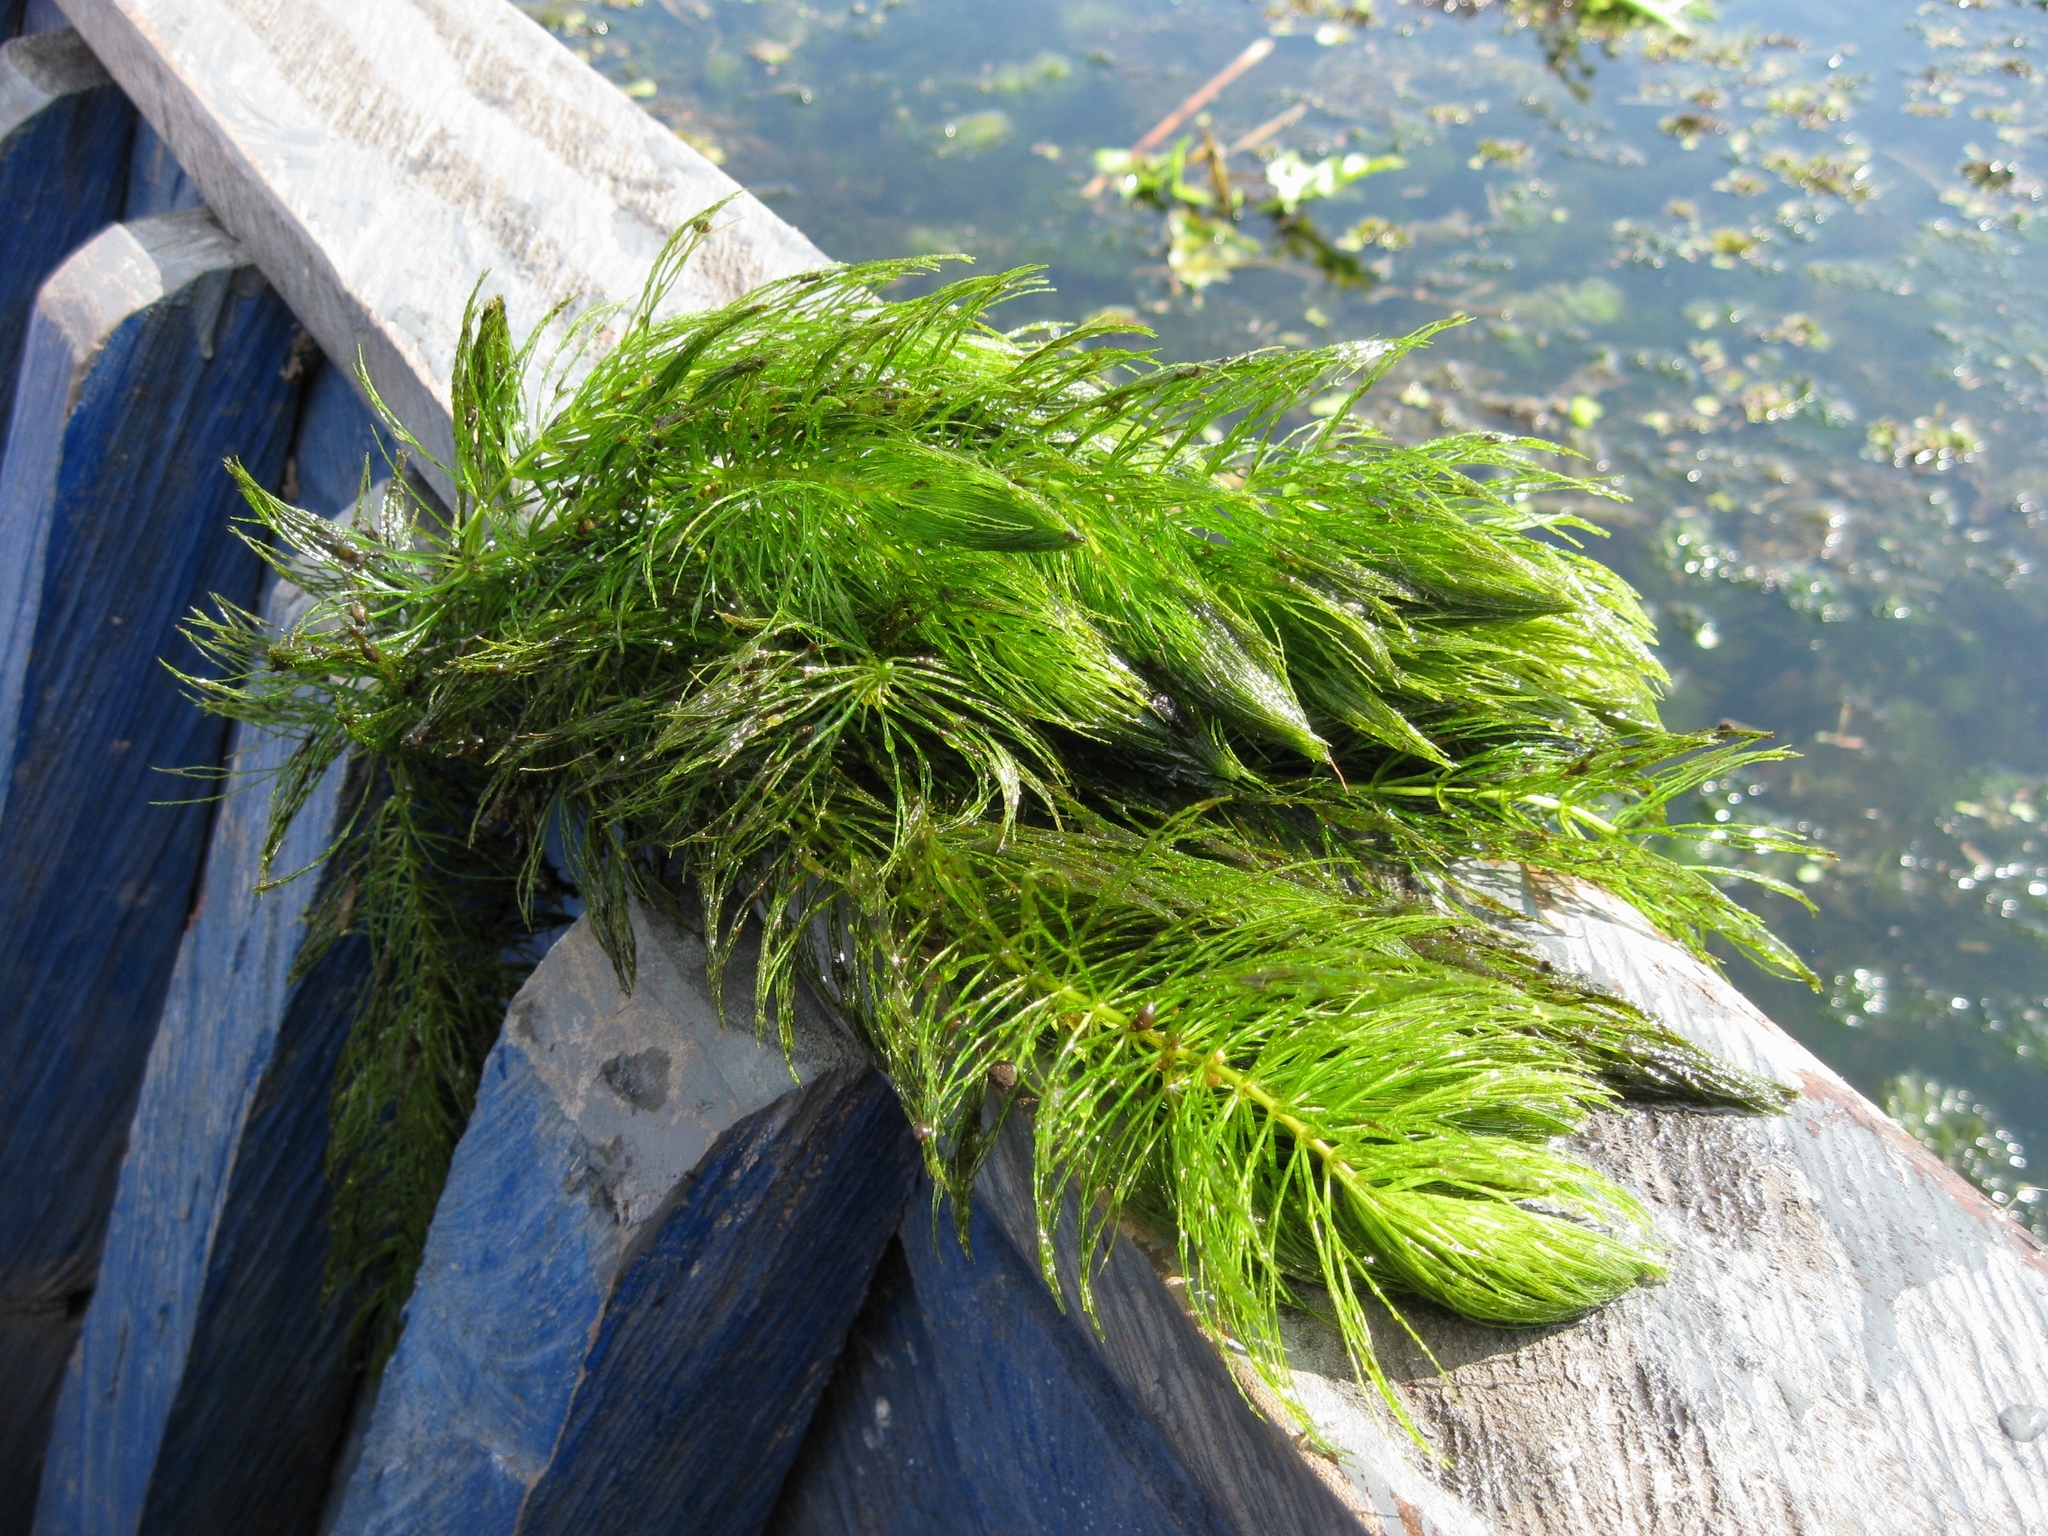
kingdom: Plantae
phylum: Tracheophyta
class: Magnoliopsida
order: Ceratophyllales
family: Ceratophyllaceae
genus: Ceratophyllum
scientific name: Ceratophyllum demersum
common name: Rigid hornwort
